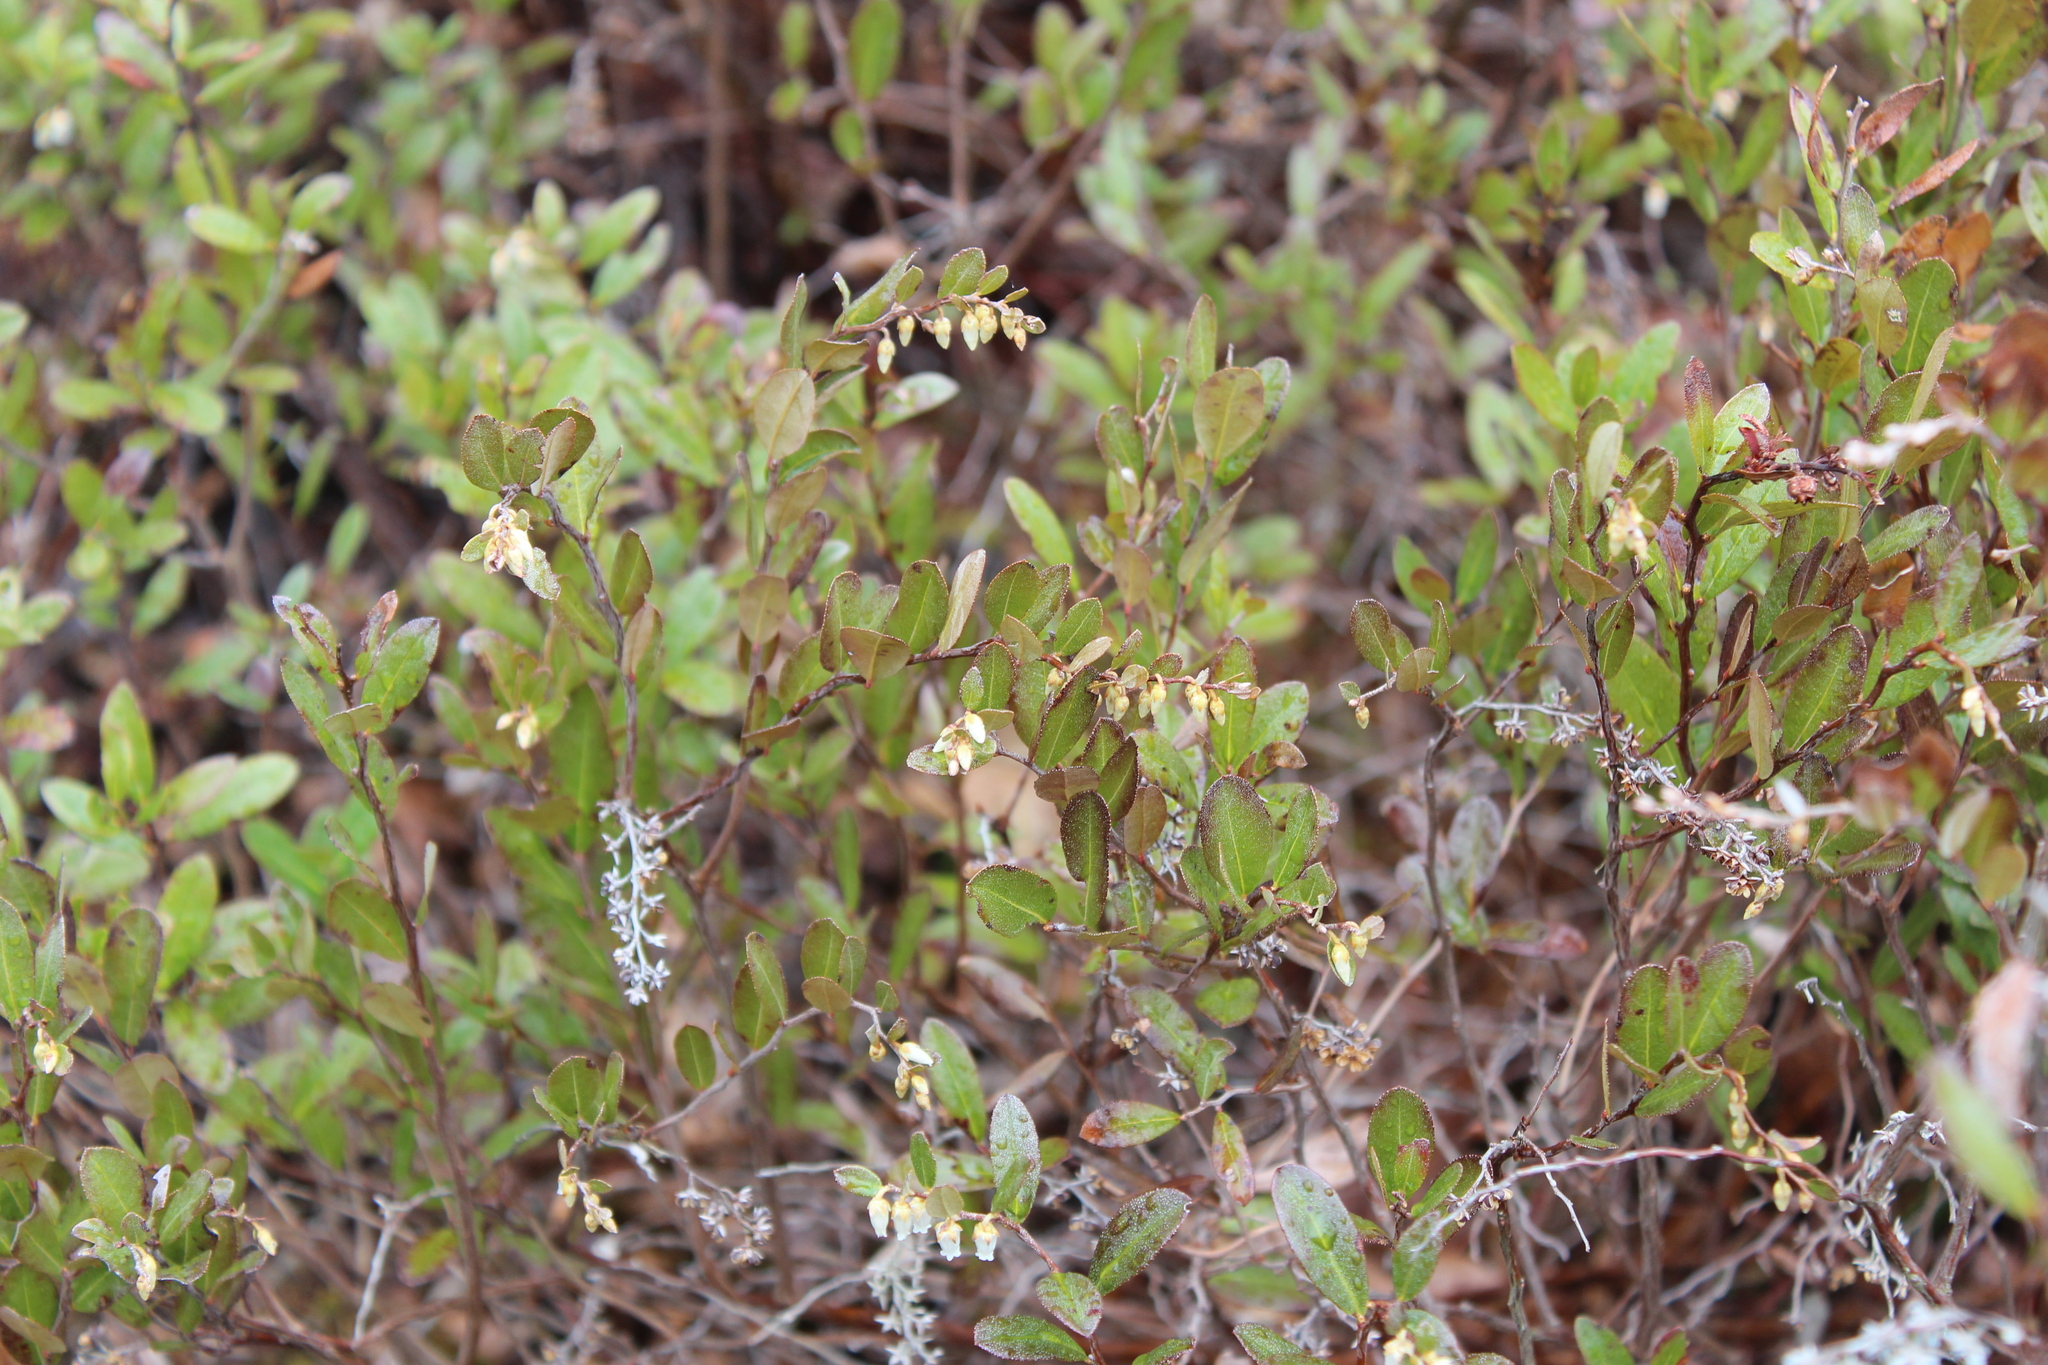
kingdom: Plantae
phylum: Tracheophyta
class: Magnoliopsida
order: Ericales
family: Ericaceae
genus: Chamaedaphne
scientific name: Chamaedaphne calyculata
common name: Leatherleaf
